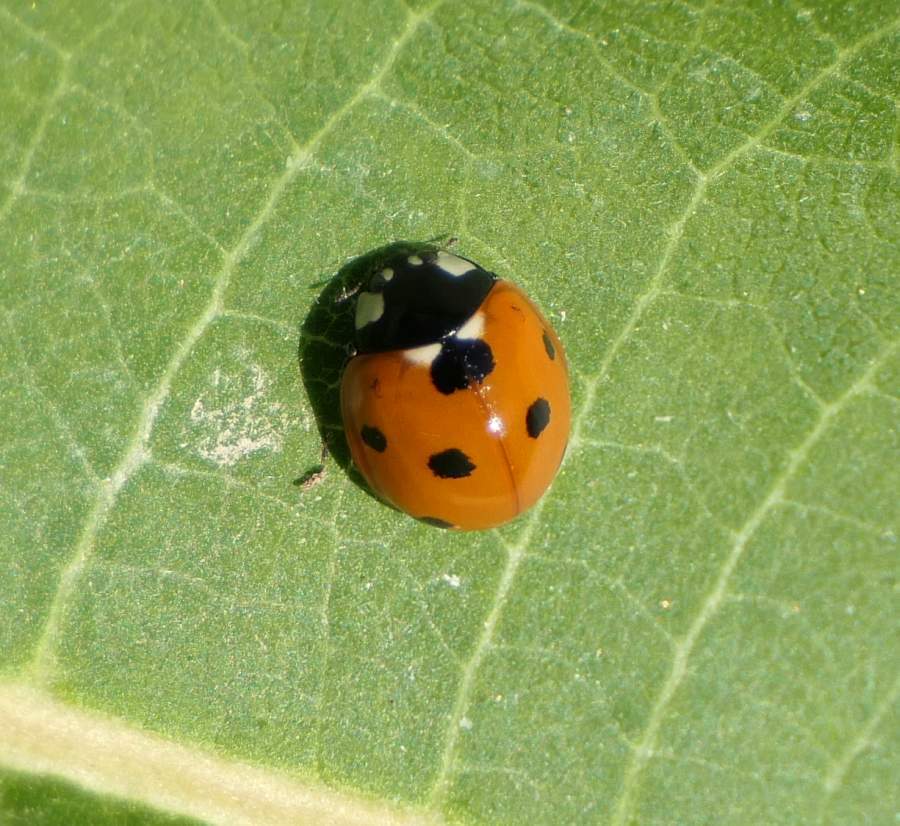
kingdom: Animalia
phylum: Arthropoda
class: Insecta
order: Coleoptera
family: Coccinellidae
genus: Coccinella
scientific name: Coccinella septempunctata
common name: Sevenspotted lady beetle
